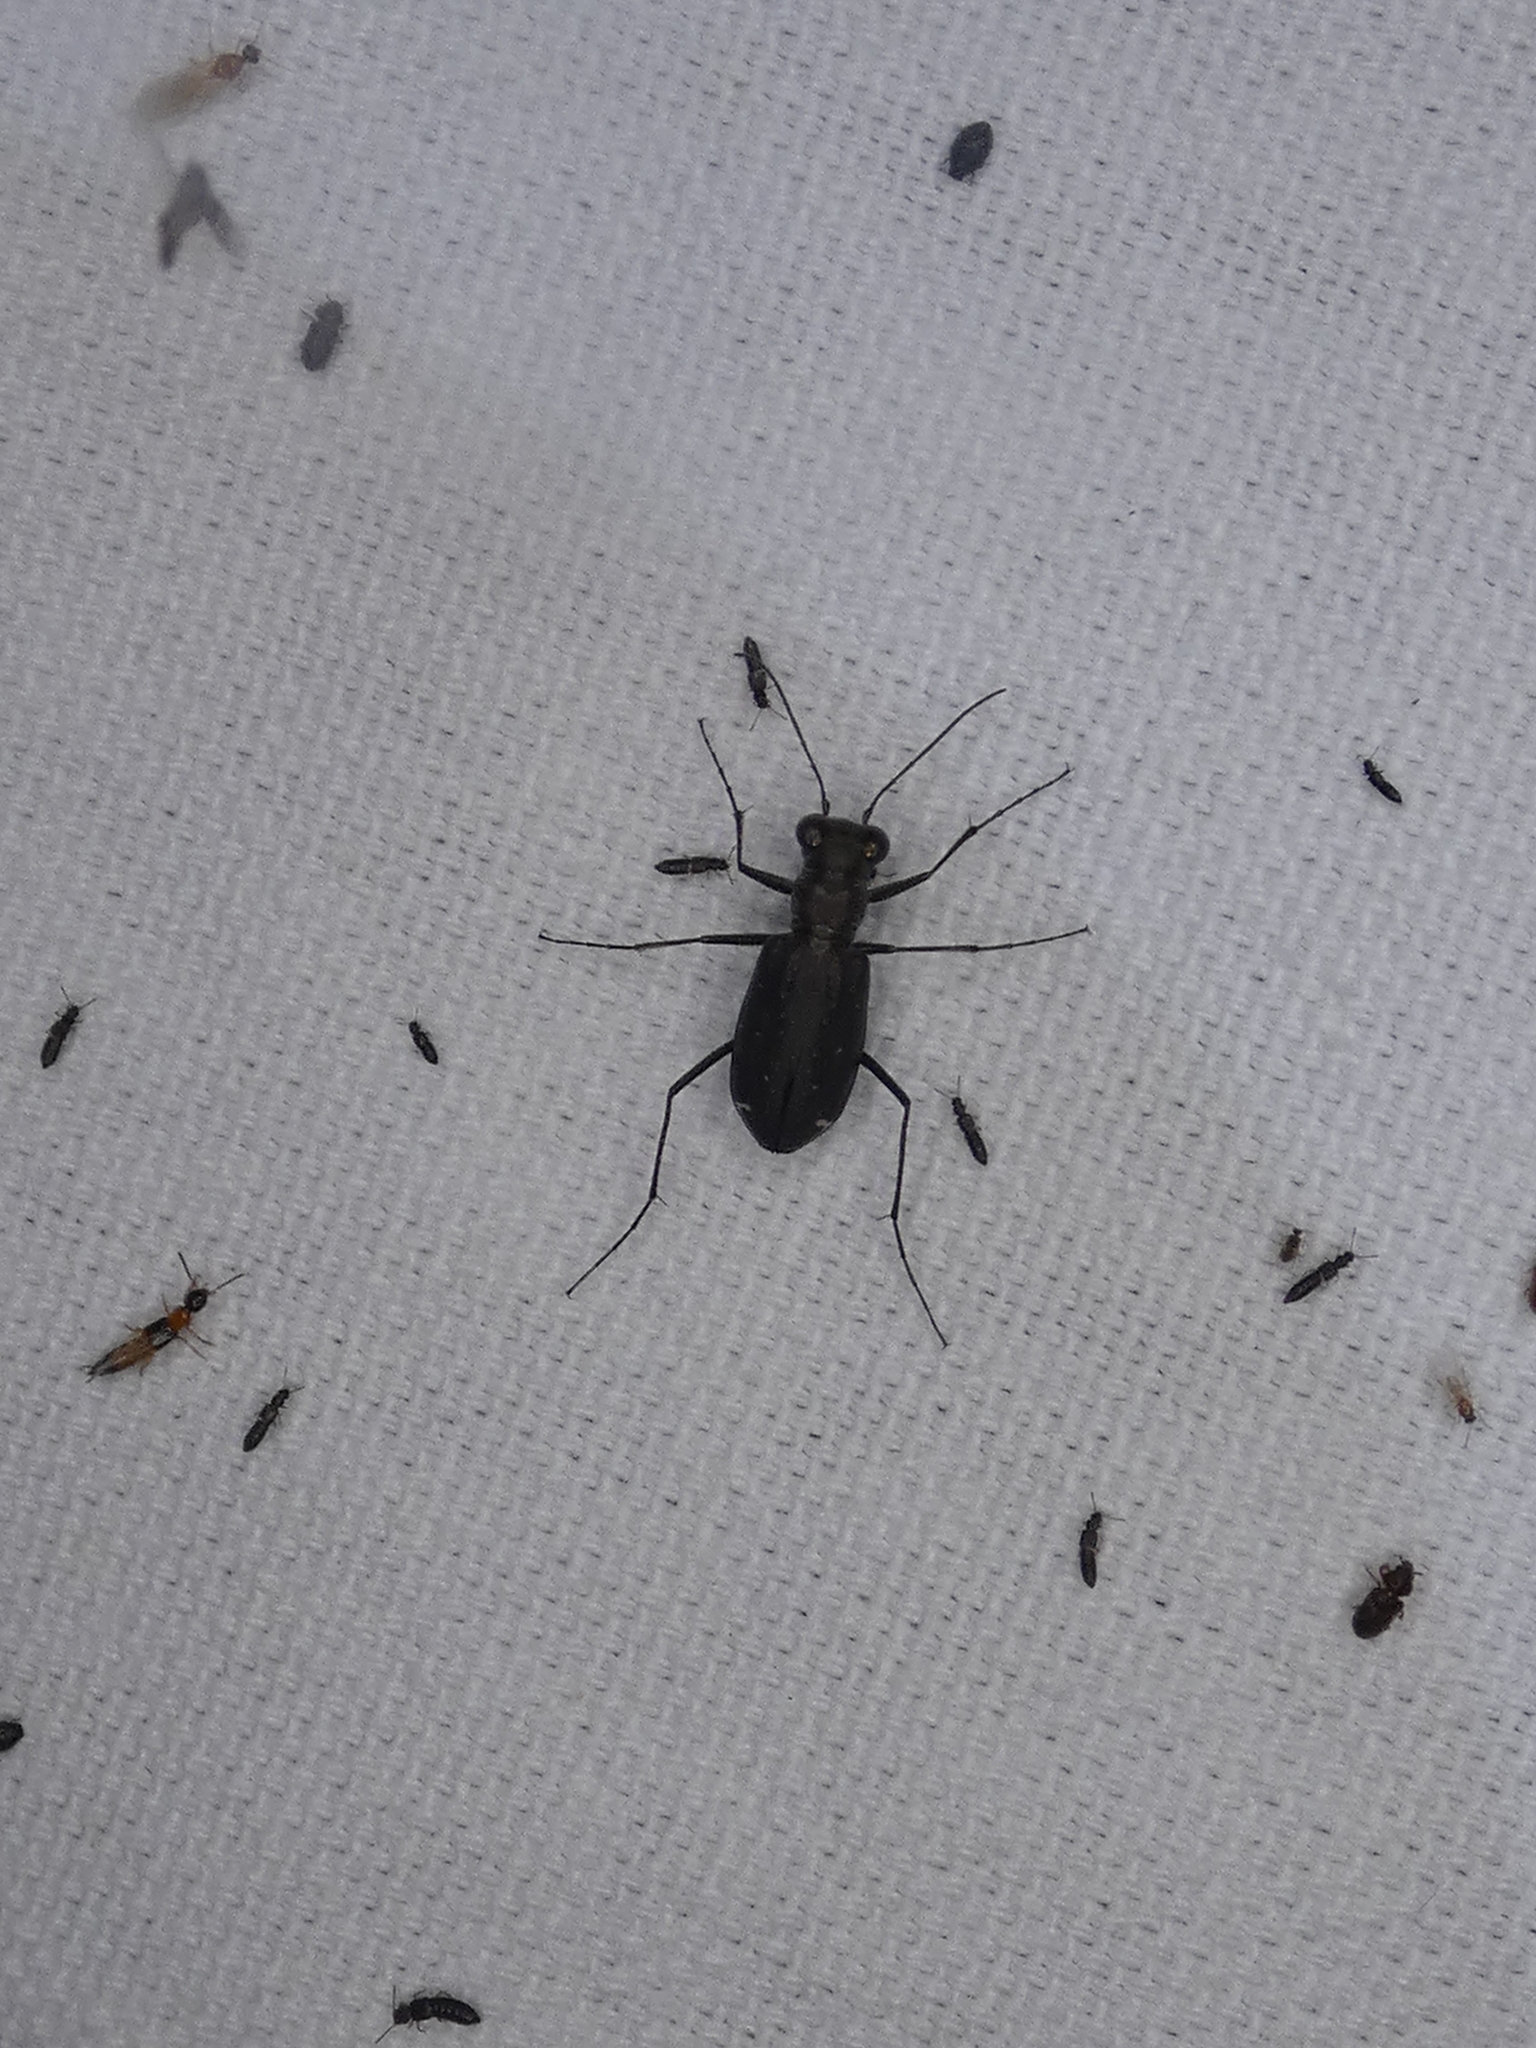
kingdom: Animalia
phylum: Arthropoda
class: Insecta
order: Coleoptera
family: Carabidae
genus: Cicindela
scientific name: Cicindela punctulata
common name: Punctured tiger beetle
